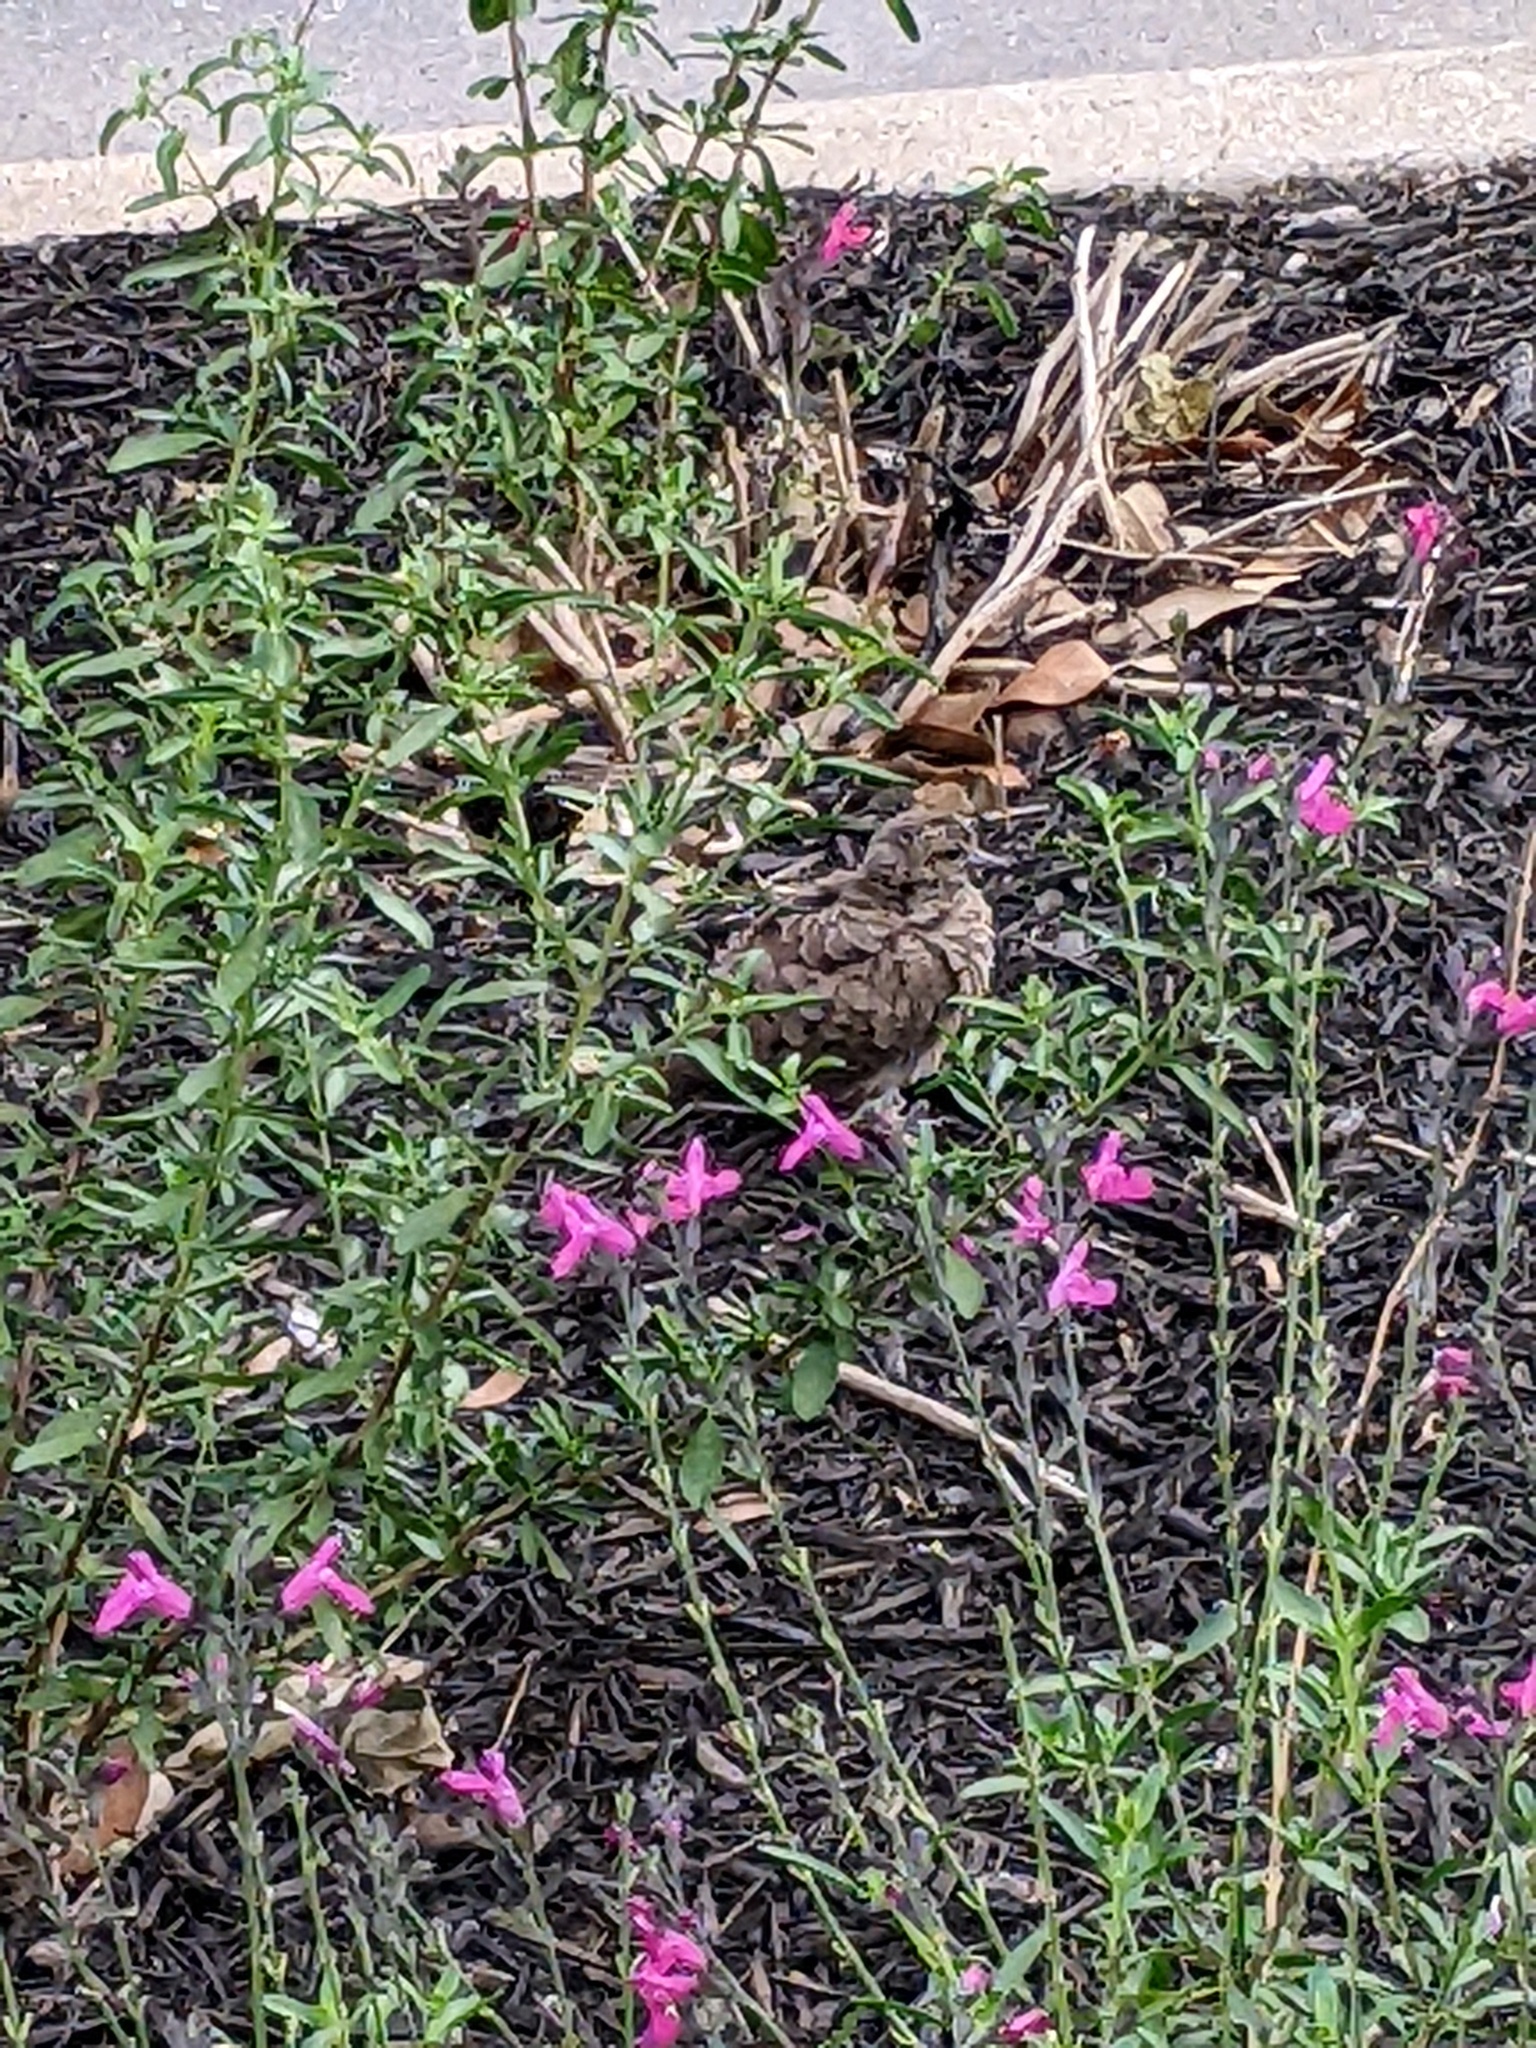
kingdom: Animalia
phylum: Chordata
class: Aves
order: Columbiformes
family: Columbidae
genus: Zenaida
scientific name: Zenaida macroura
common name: Mourning dove
